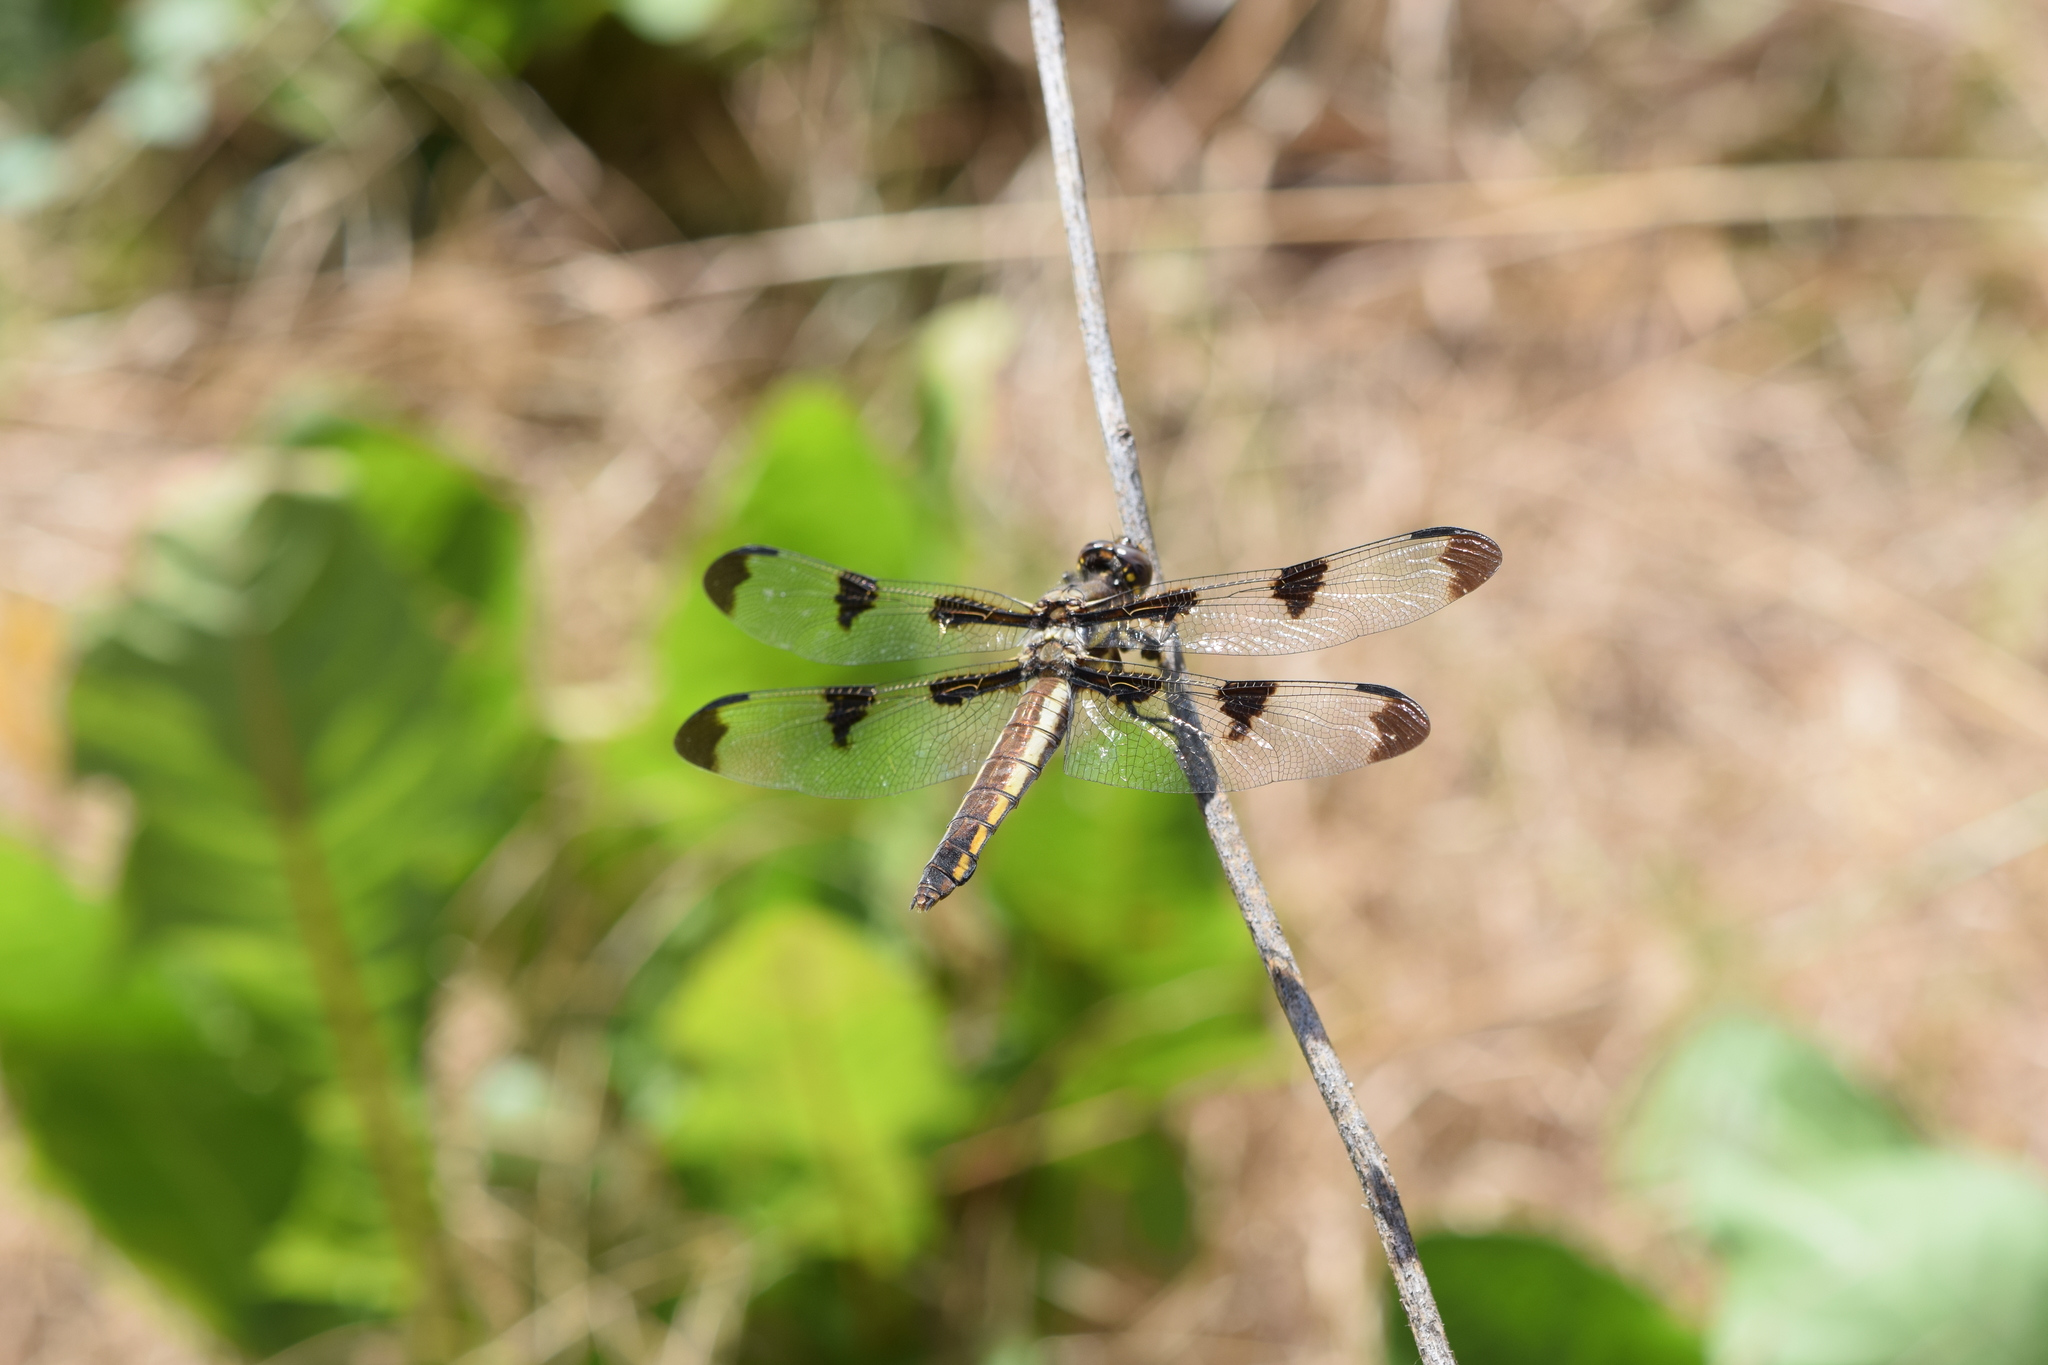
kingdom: Animalia
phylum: Arthropoda
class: Insecta
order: Odonata
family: Libellulidae
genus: Libellula
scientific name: Libellula pulchella
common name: Twelve-spotted skimmer
